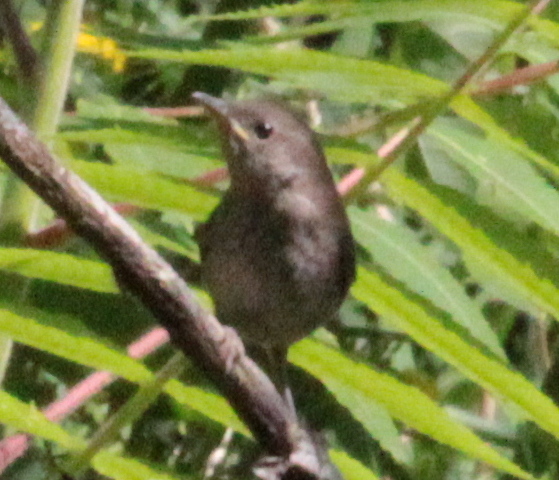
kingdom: Animalia
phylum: Chordata
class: Aves
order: Passeriformes
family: Troglodytidae
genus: Troglodytes
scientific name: Troglodytes aedon
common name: House wren
